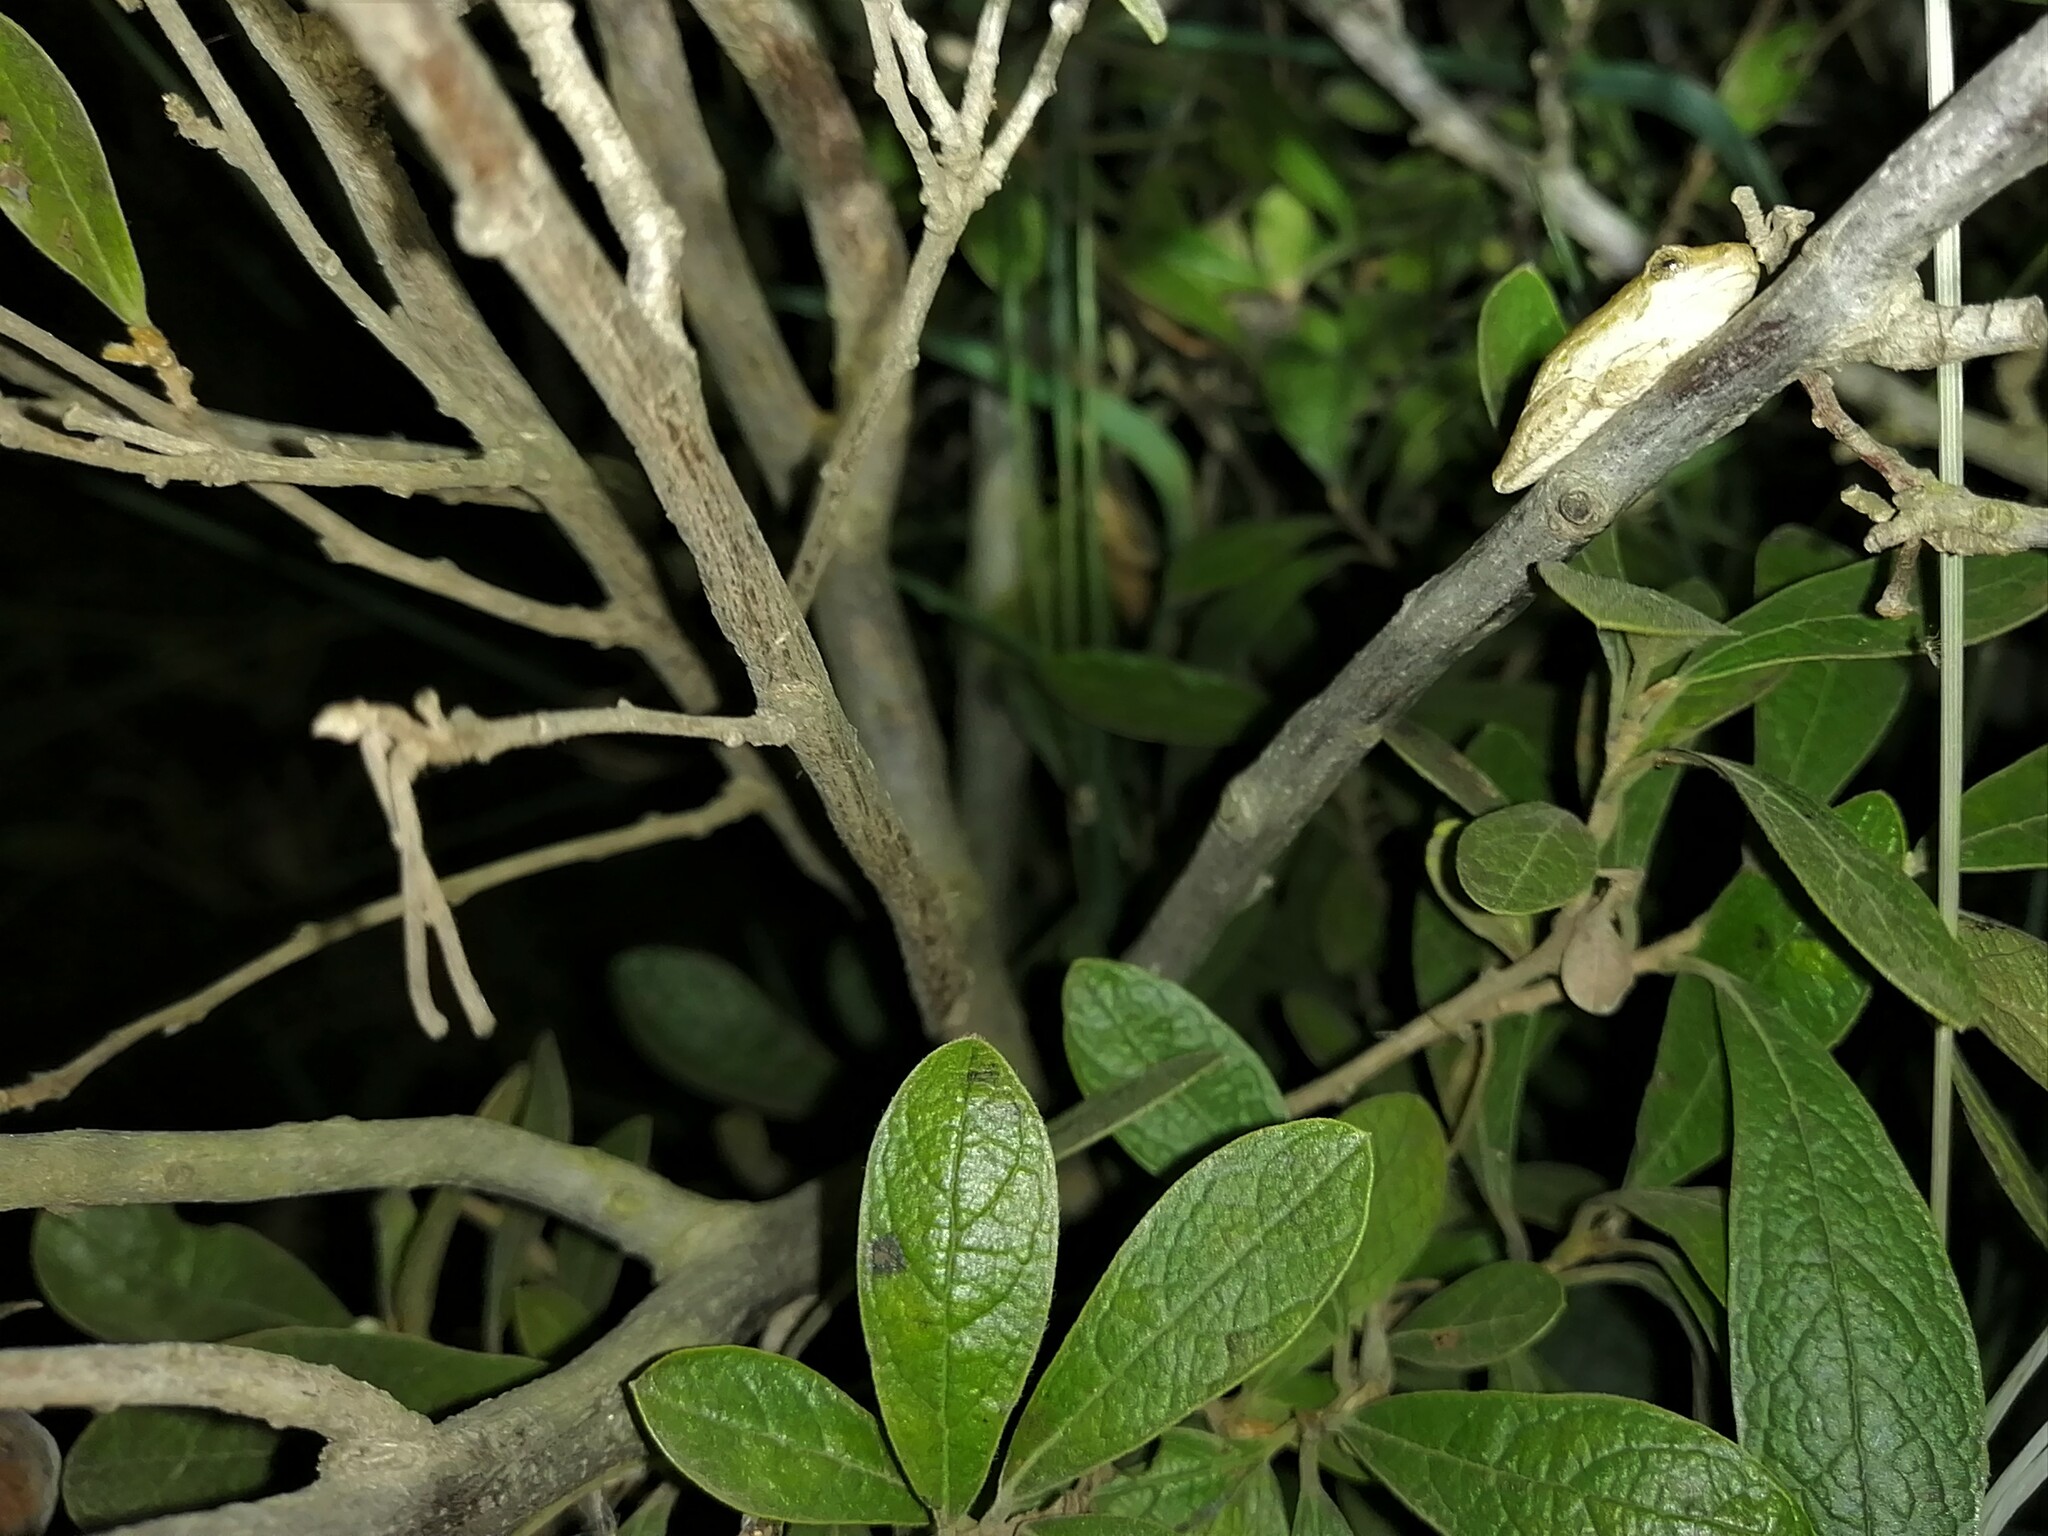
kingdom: Animalia
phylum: Chordata
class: Amphibia
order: Anura
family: Hyperoliidae
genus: Hyperolius
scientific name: Hyperolius marmoratus
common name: Painted reed frog
